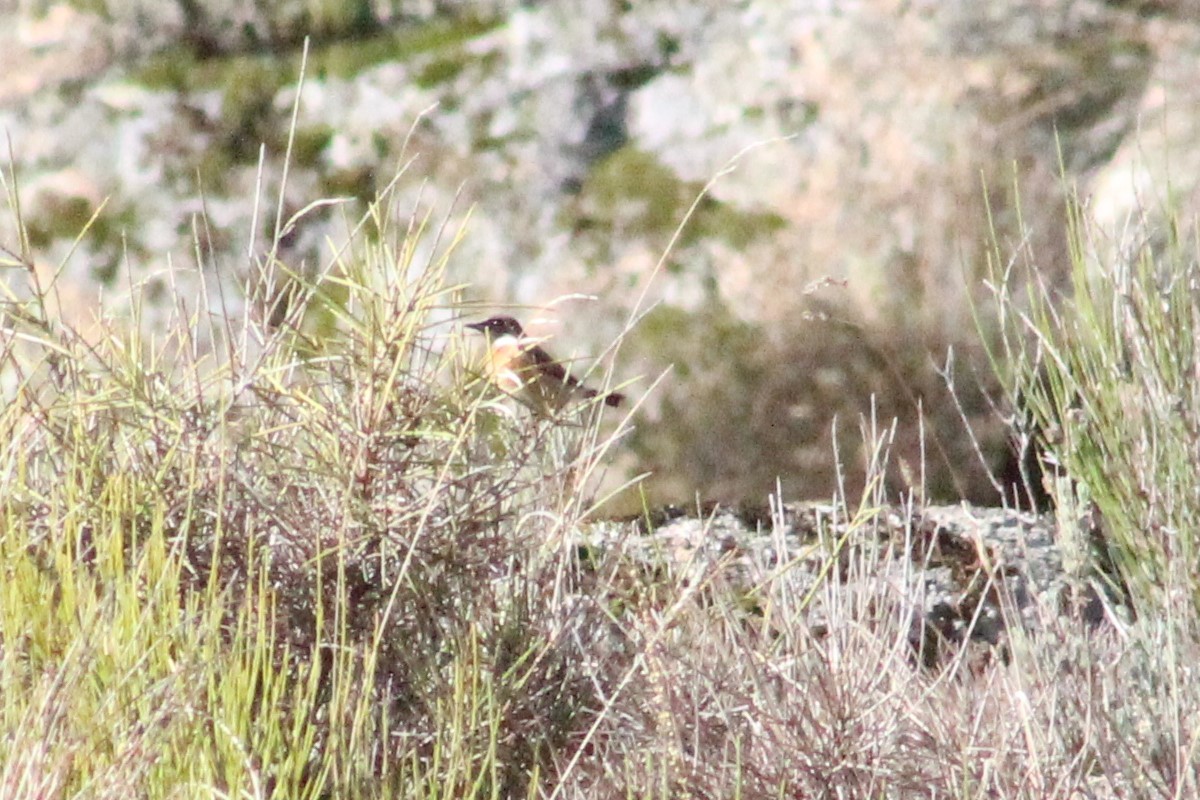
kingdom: Animalia
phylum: Chordata
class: Aves
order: Passeriformes
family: Muscicapidae
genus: Saxicola
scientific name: Saxicola rubicola
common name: European stonechat
